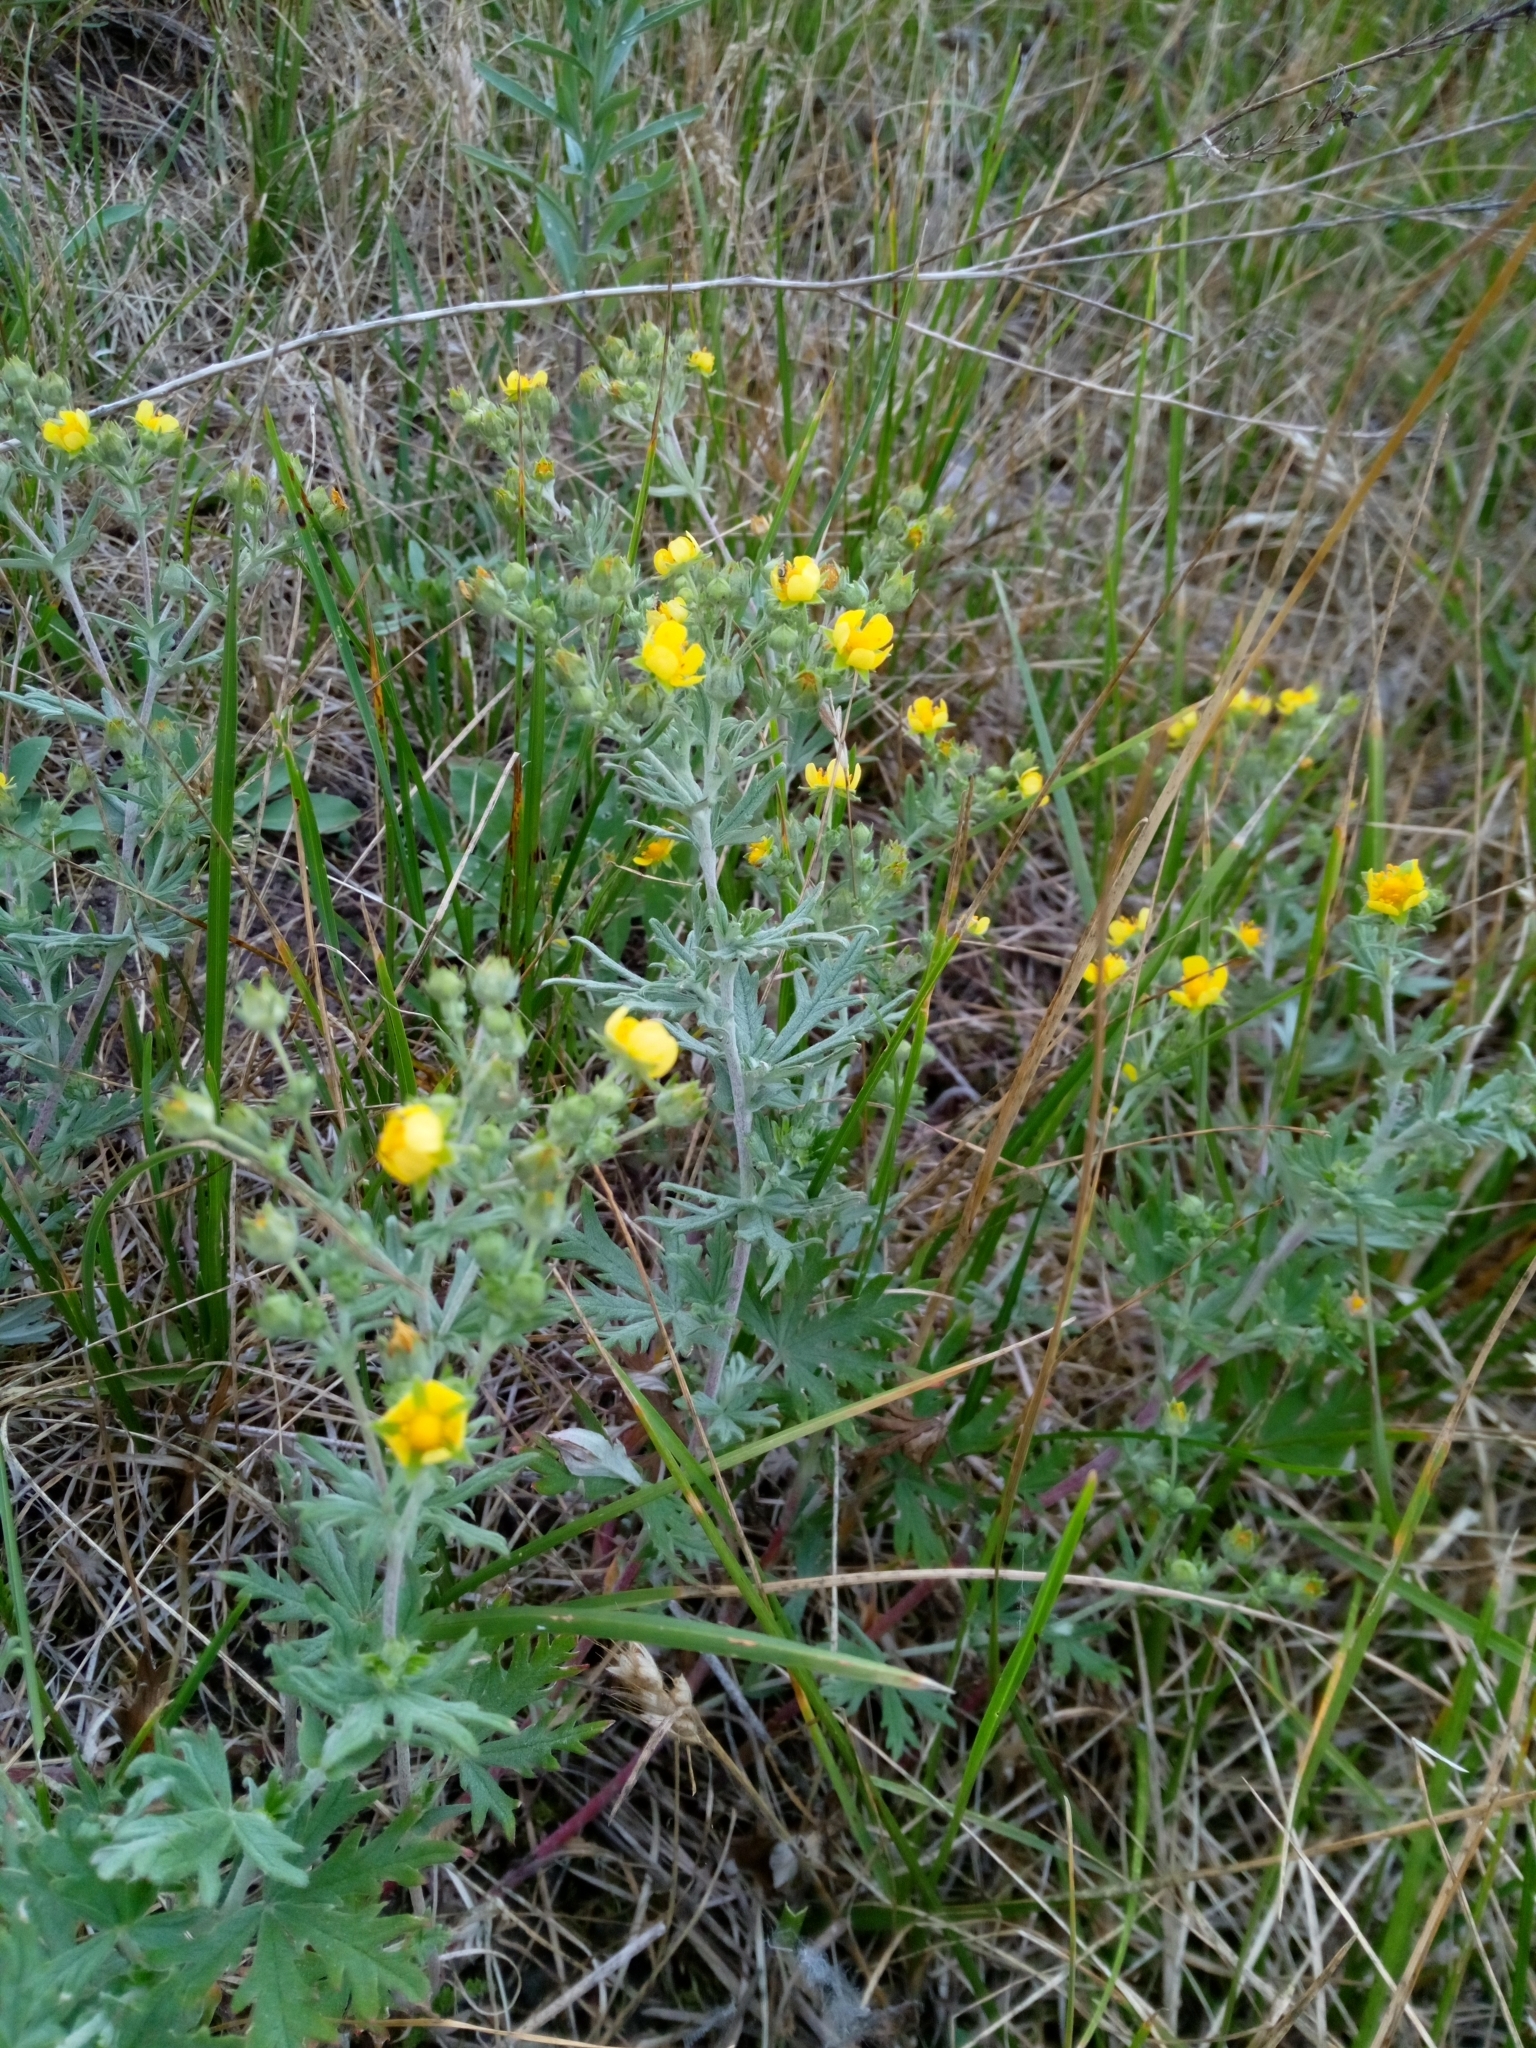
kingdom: Plantae
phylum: Tracheophyta
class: Magnoliopsida
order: Rosales
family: Rosaceae
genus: Potentilla
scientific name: Potentilla argentea
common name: Hoary cinquefoil
